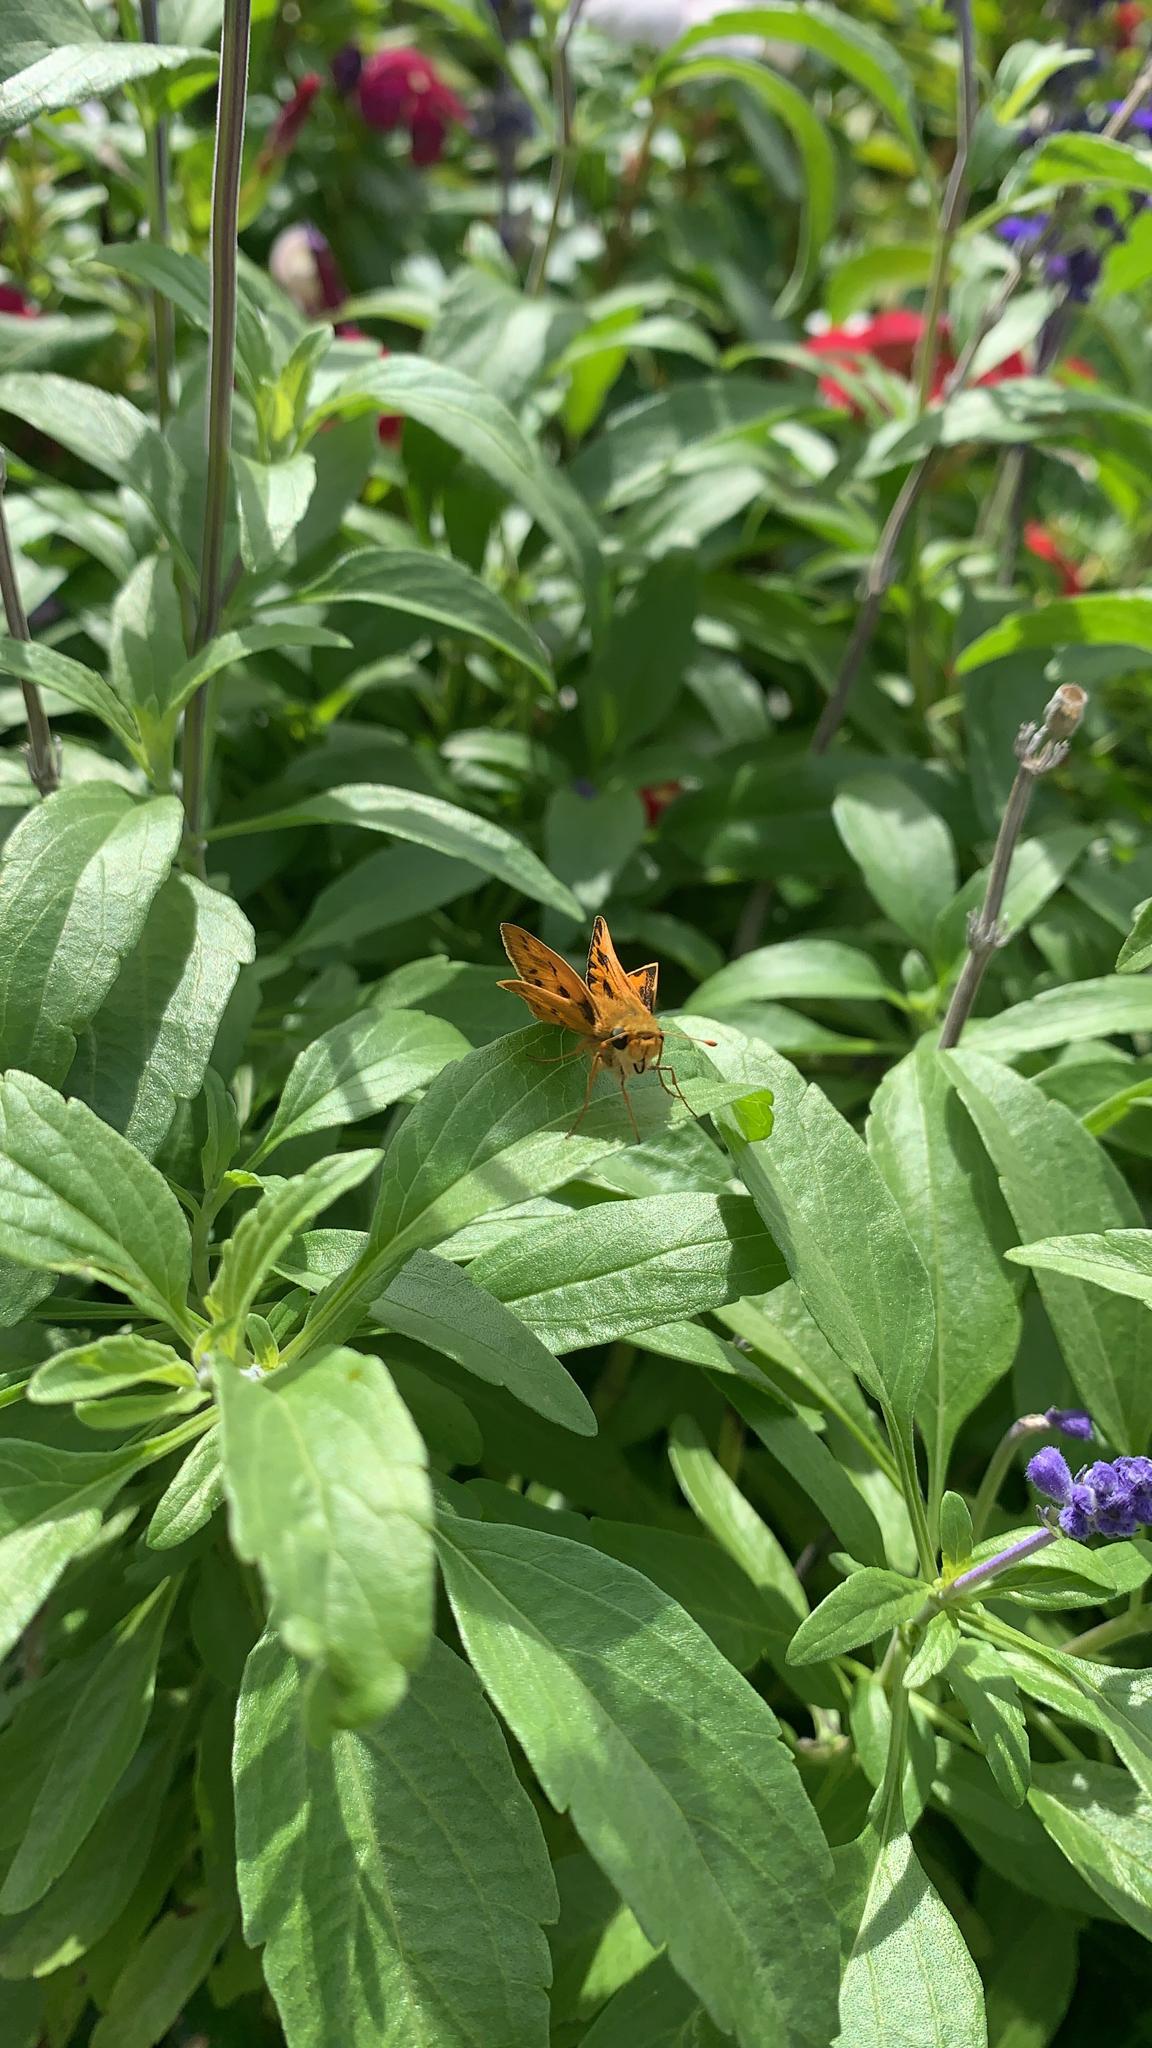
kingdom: Animalia
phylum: Arthropoda
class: Insecta
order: Lepidoptera
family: Hesperiidae
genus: Hylephila
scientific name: Hylephila phyleus
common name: Fiery skipper
